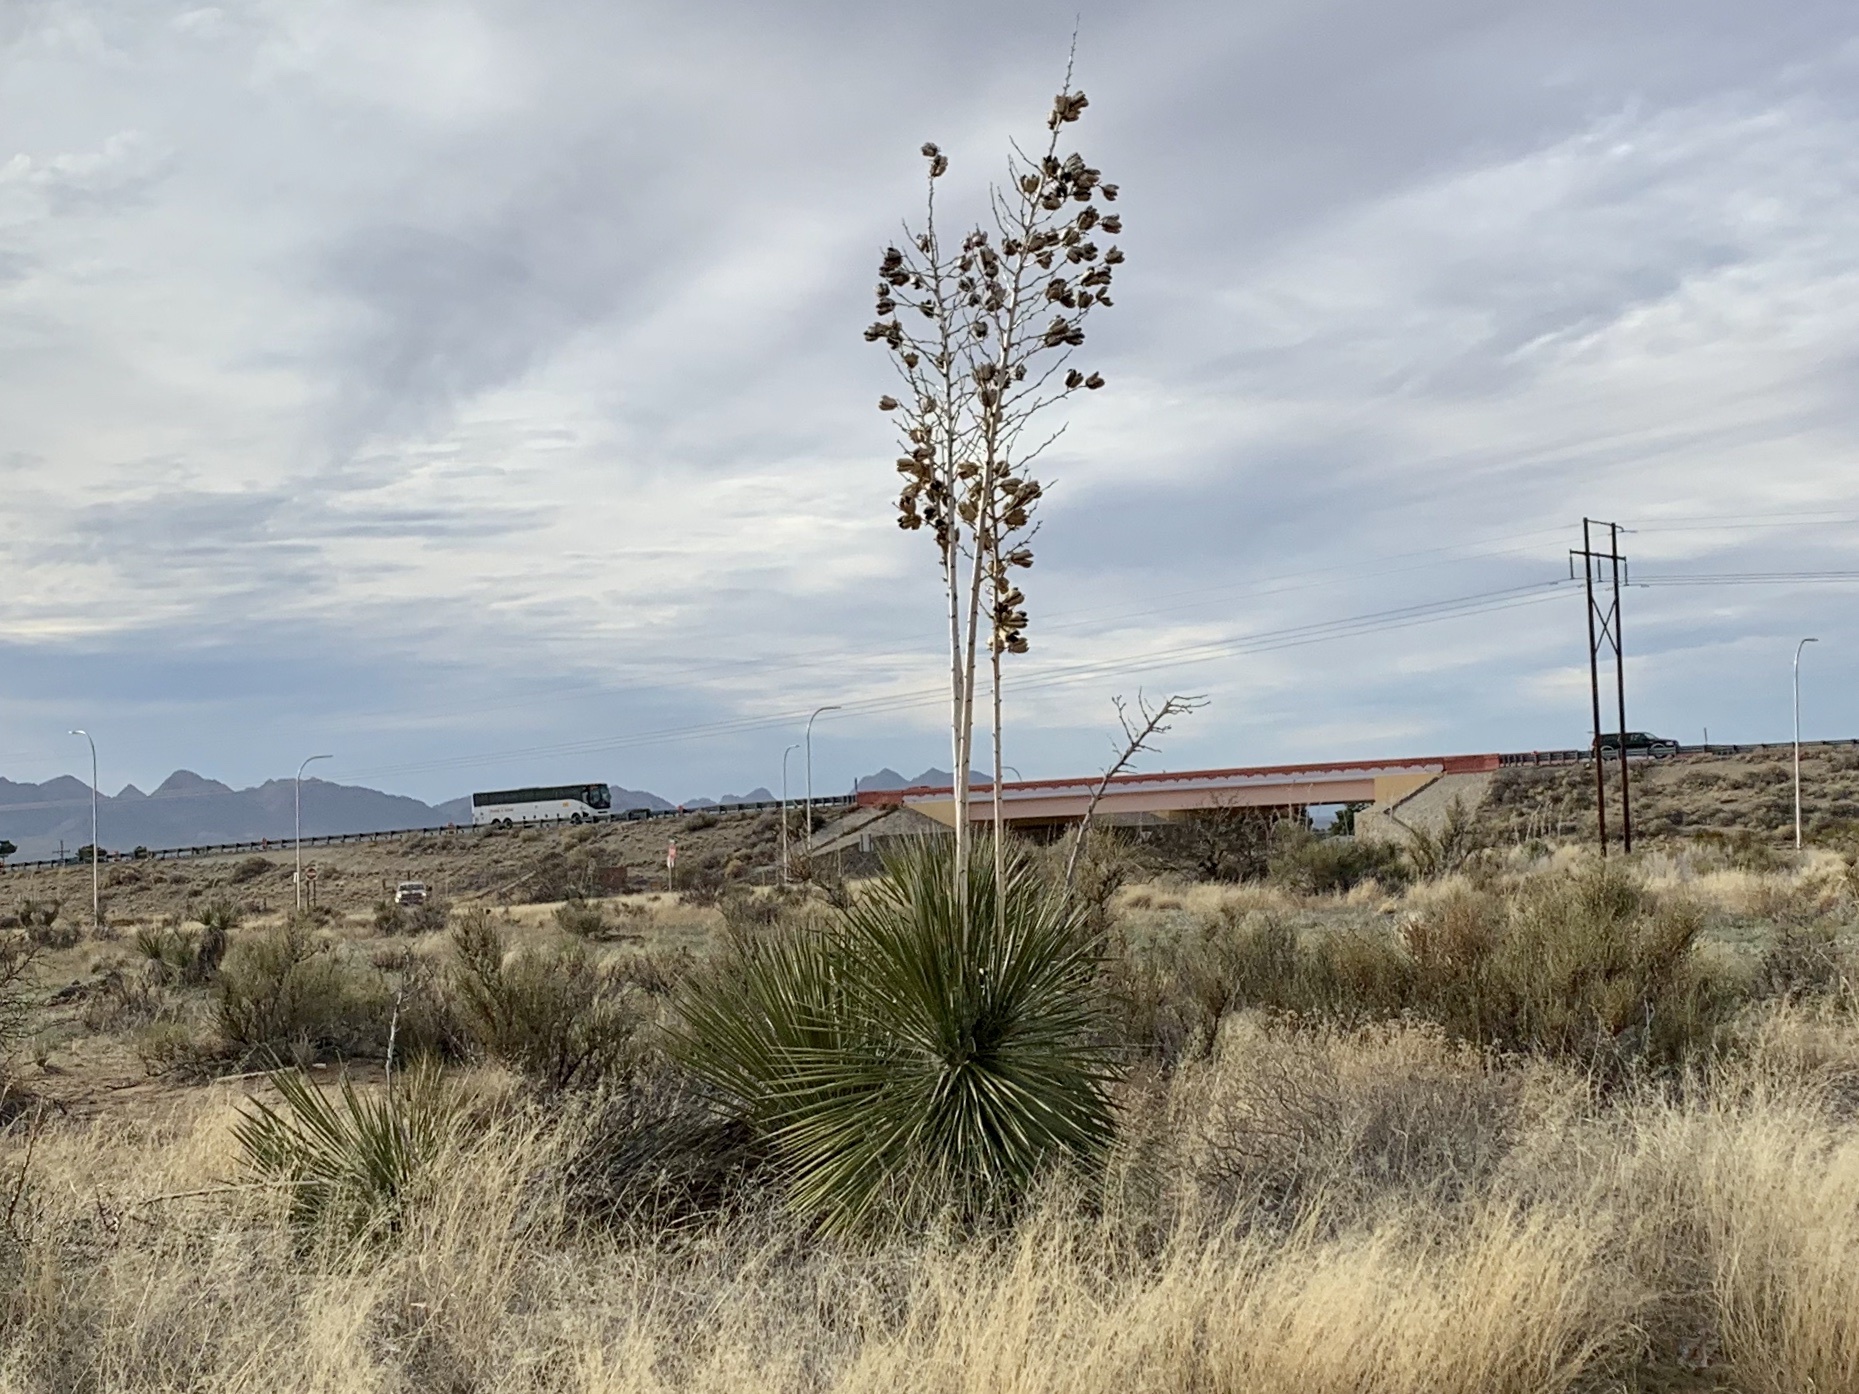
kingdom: Plantae
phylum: Tracheophyta
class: Liliopsida
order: Asparagales
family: Asparagaceae
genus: Yucca
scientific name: Yucca elata
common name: Palmella
